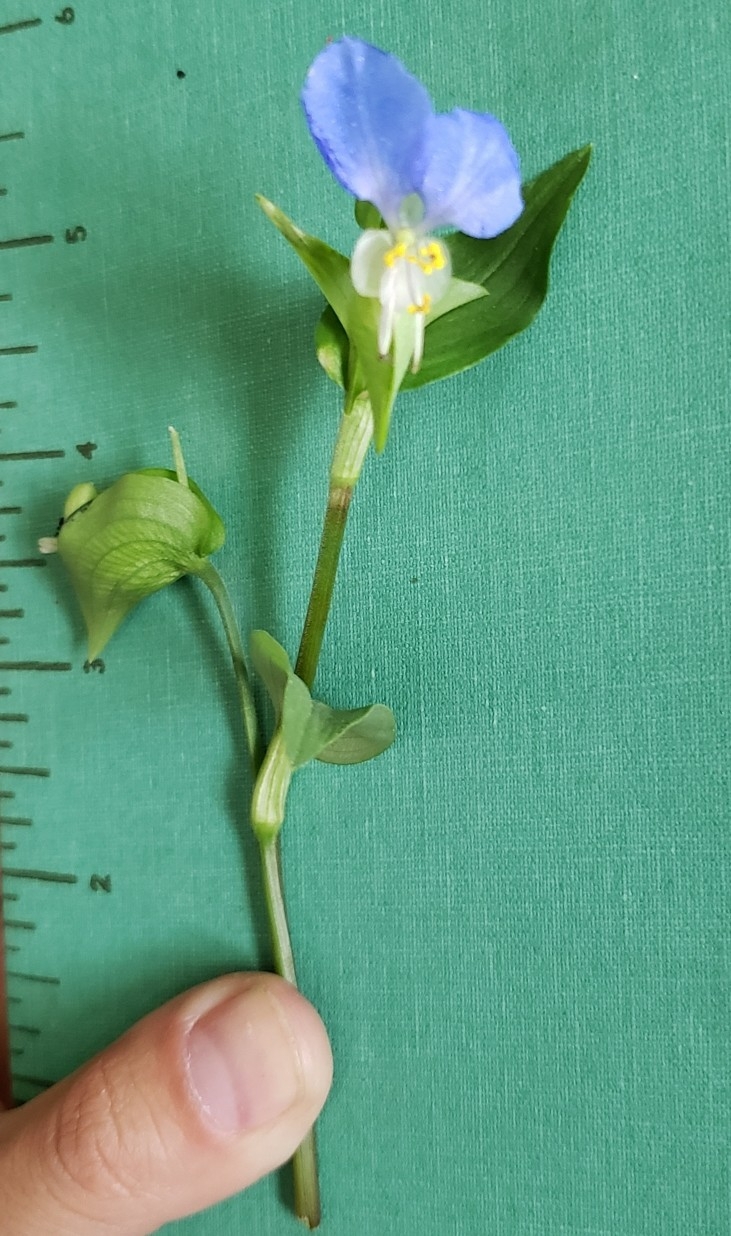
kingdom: Plantae
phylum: Tracheophyta
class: Liliopsida
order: Commelinales
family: Commelinaceae
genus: Commelina
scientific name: Commelina communis
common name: Asiatic dayflower
